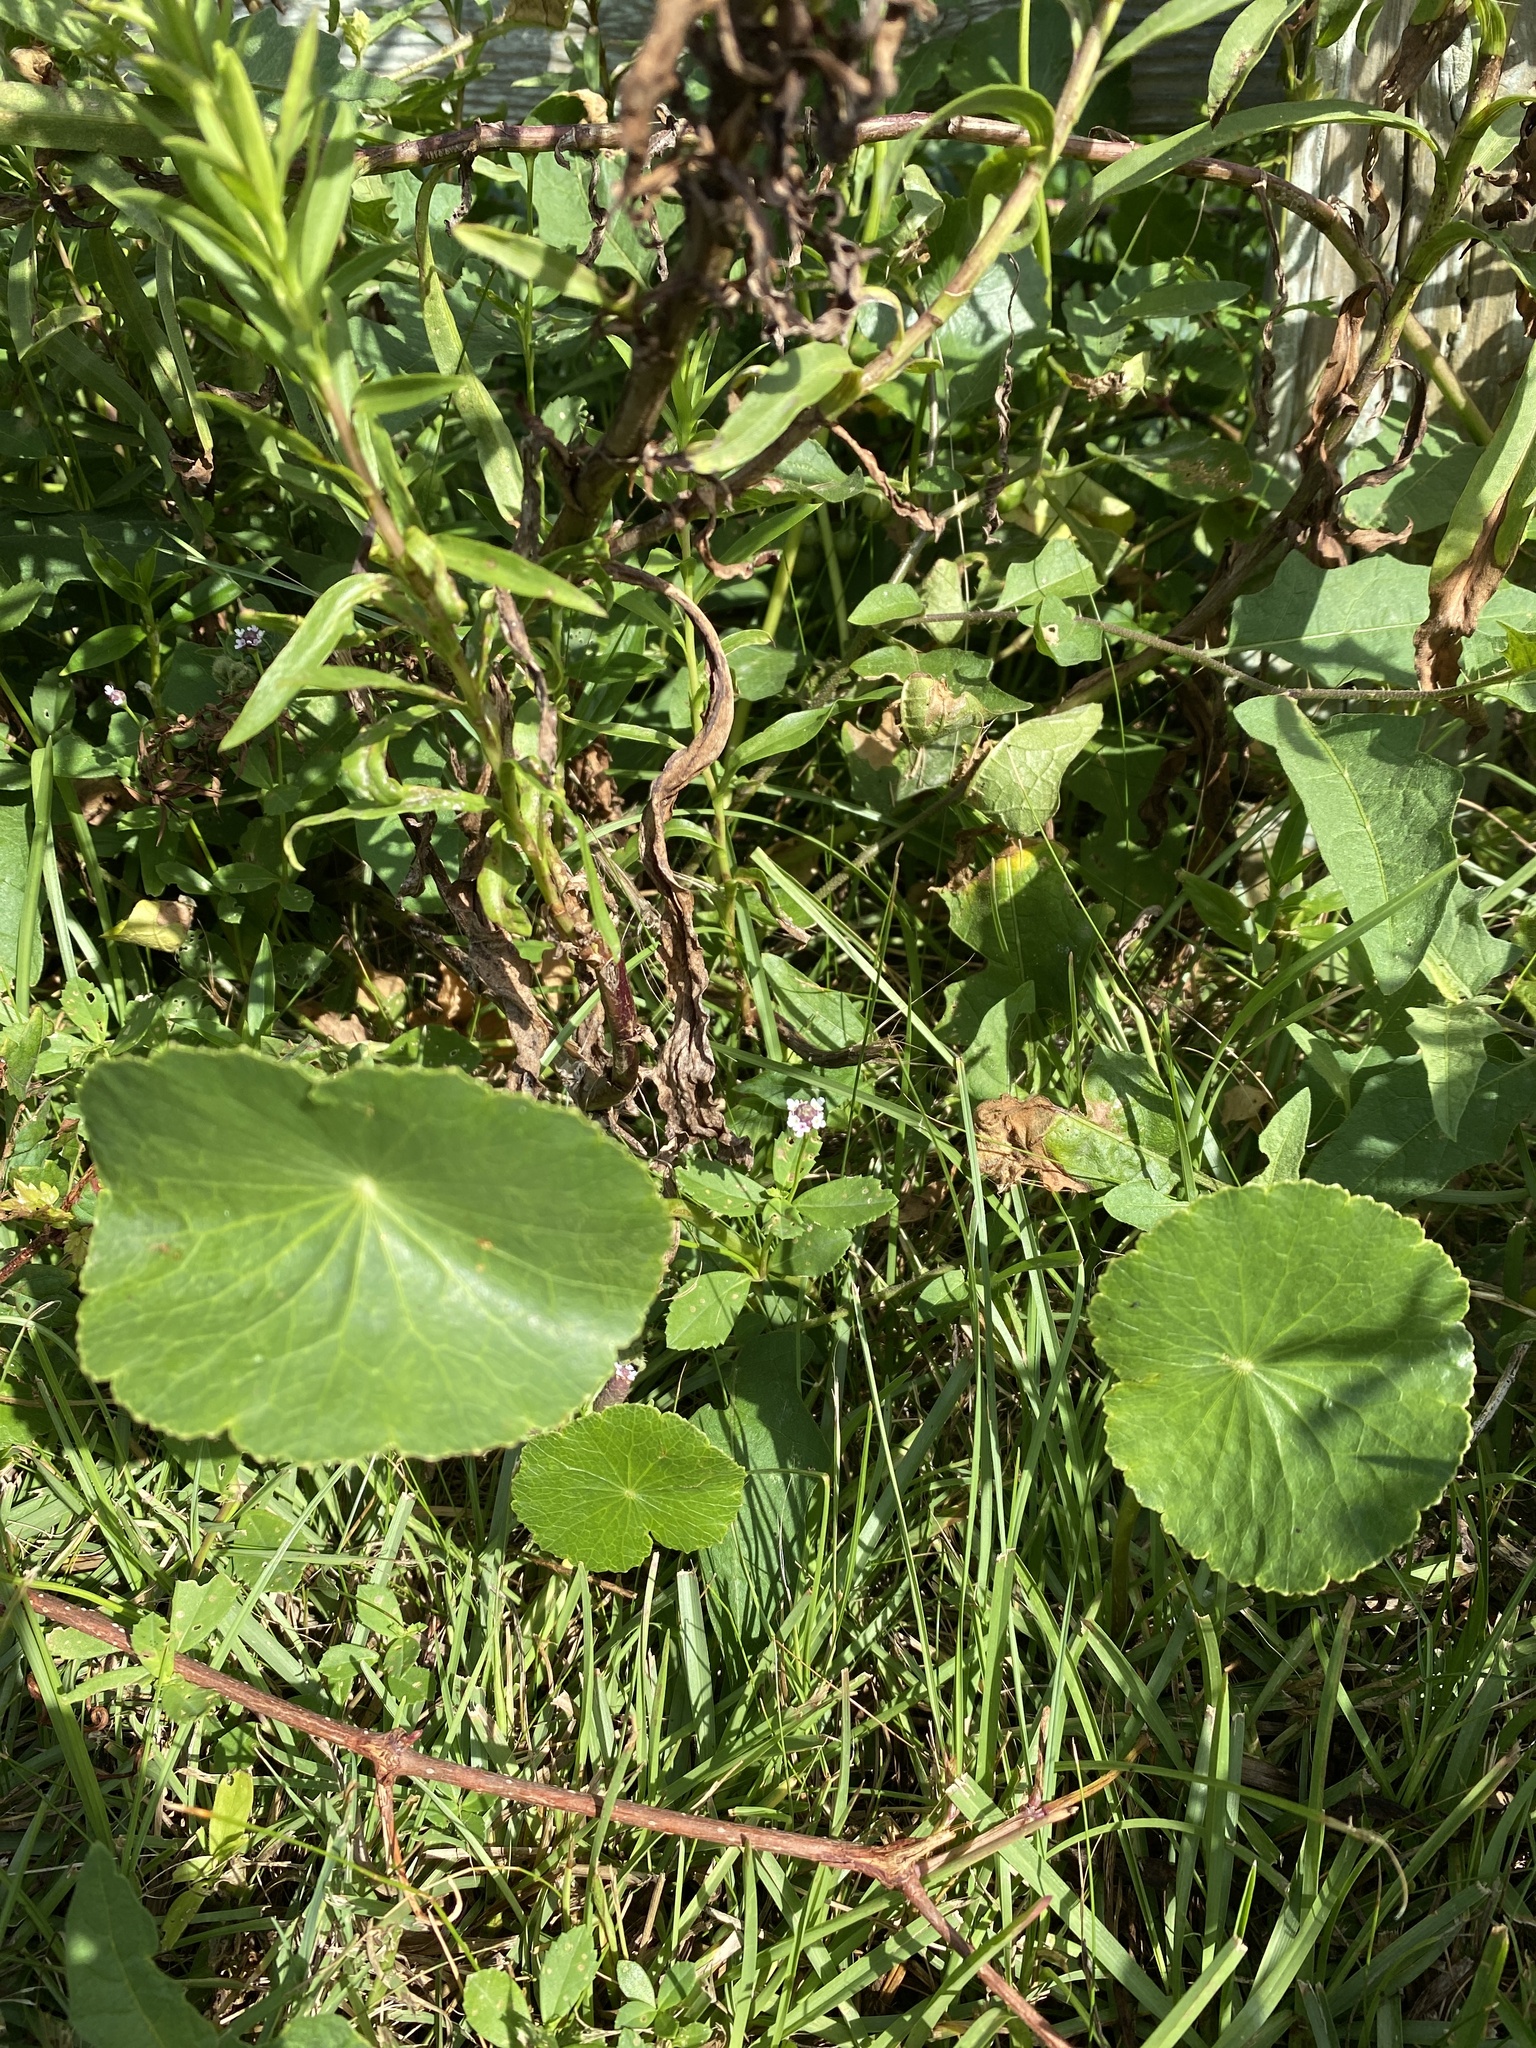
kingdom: Plantae
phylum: Tracheophyta
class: Magnoliopsida
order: Lamiales
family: Verbenaceae
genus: Phyla
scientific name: Phyla lanceolata
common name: Northern fogfruit
